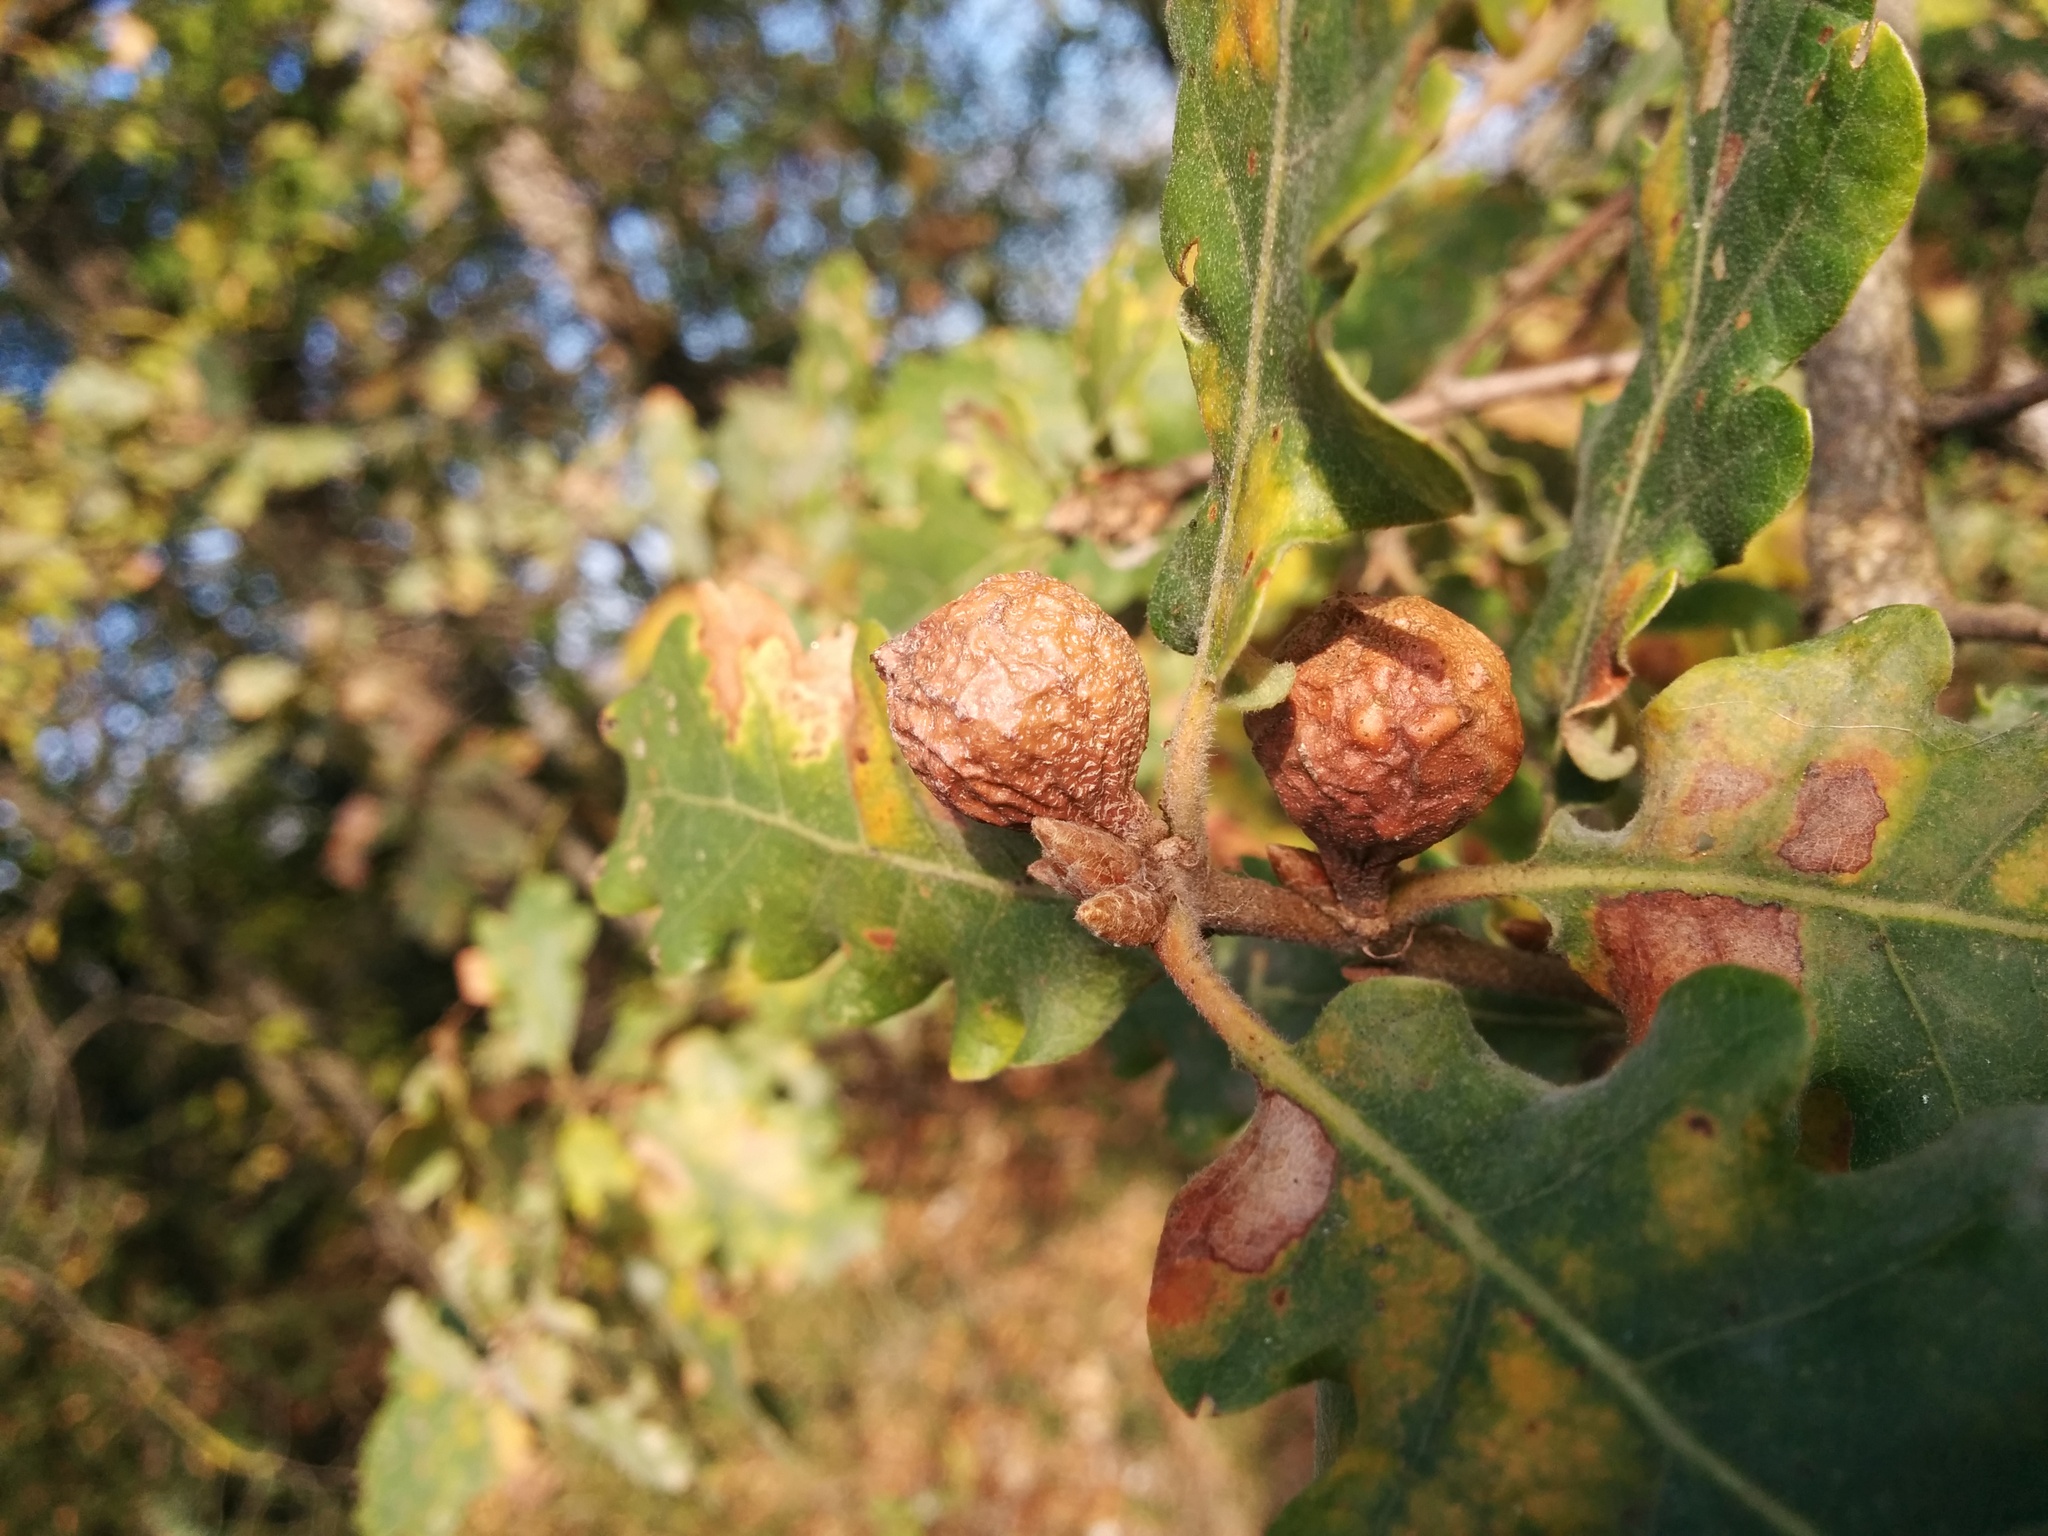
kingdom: Animalia
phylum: Arthropoda
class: Insecta
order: Hymenoptera
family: Cynipidae
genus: Andricus
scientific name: Andricus infectorius
